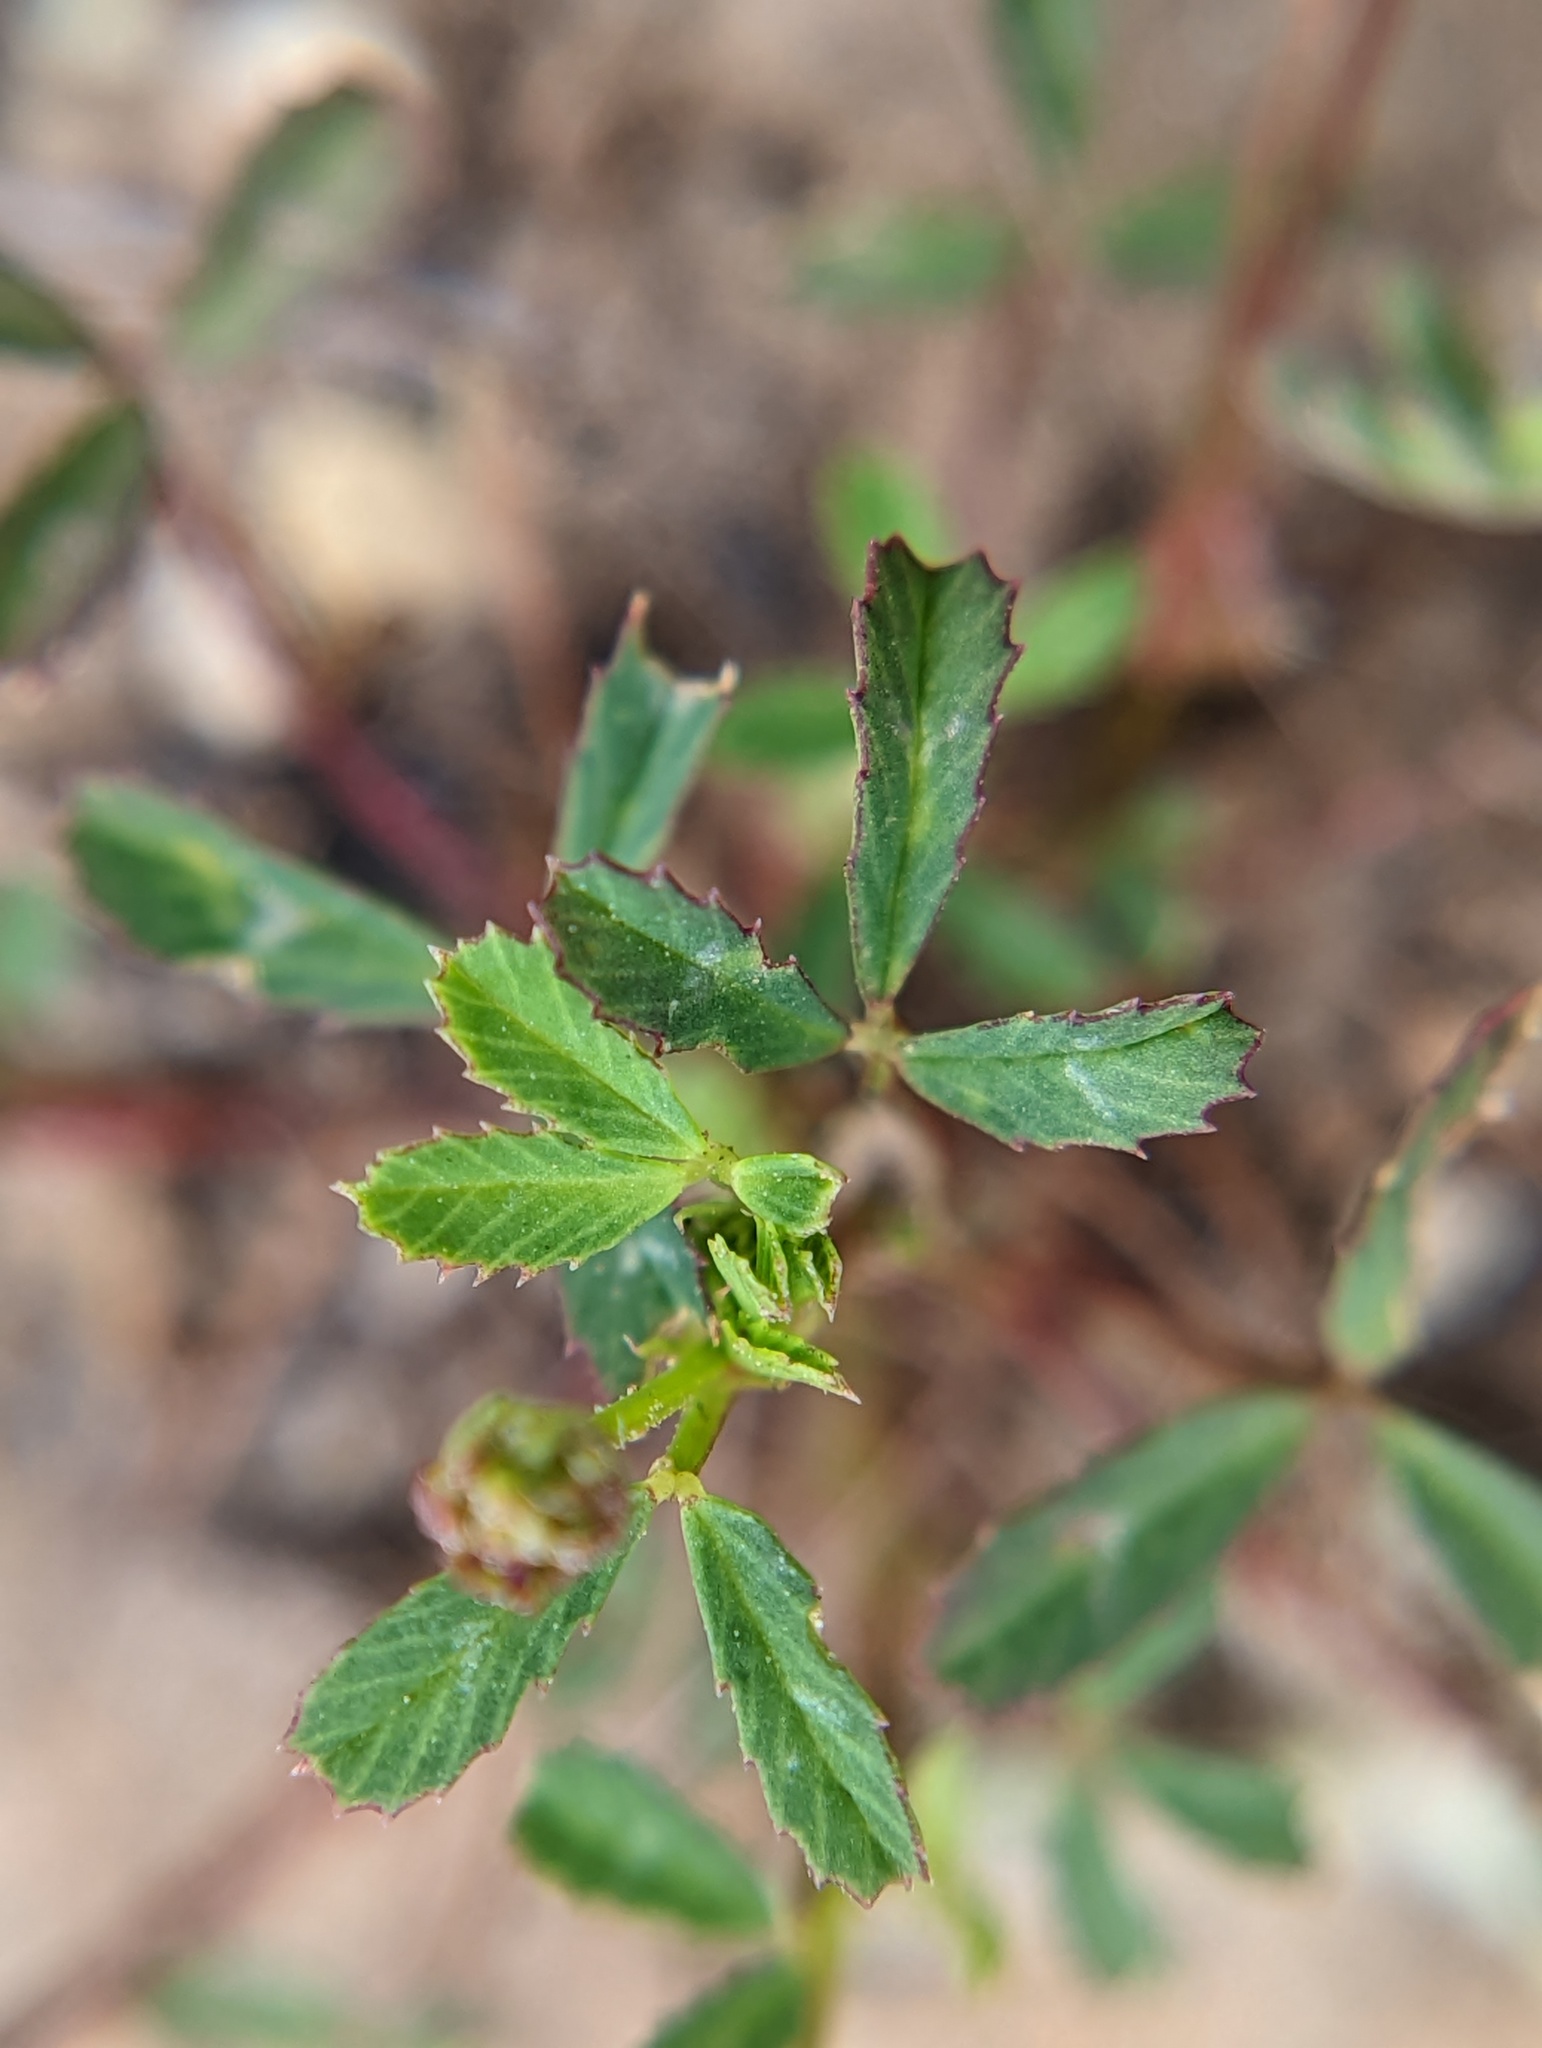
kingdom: Plantae
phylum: Tracheophyta
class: Magnoliopsida
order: Fabales
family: Fabaceae
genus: Trifolium
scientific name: Trifolium depauperatum
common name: Poverty clover
